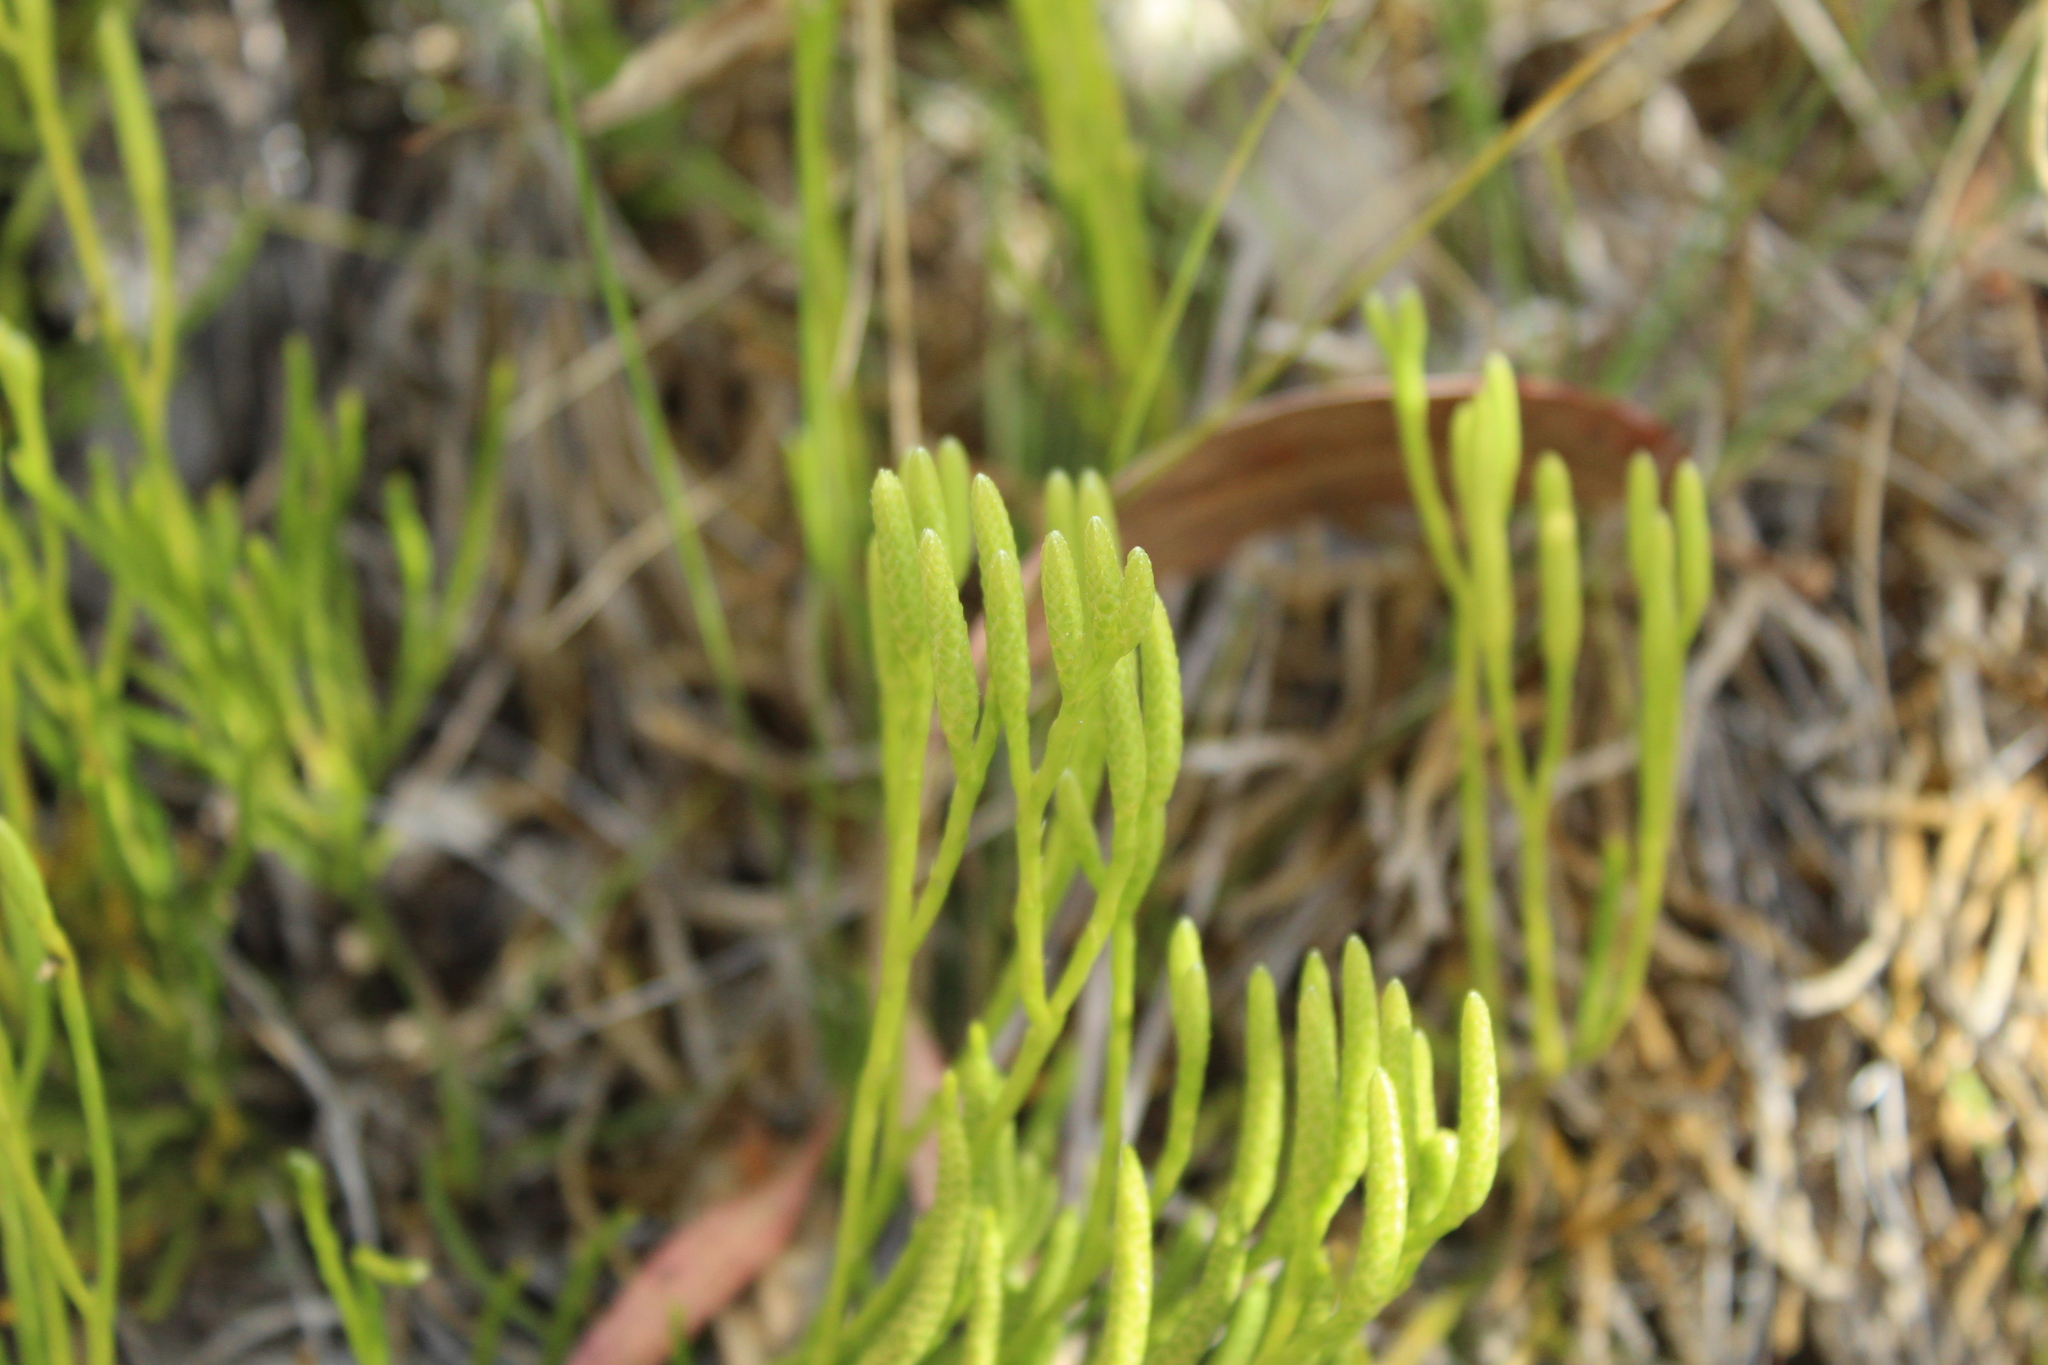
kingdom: Plantae
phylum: Tracheophyta
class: Lycopodiopsida
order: Lycopodiales
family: Lycopodiaceae
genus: Diphasiastrum
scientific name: Diphasiastrum thyoides
